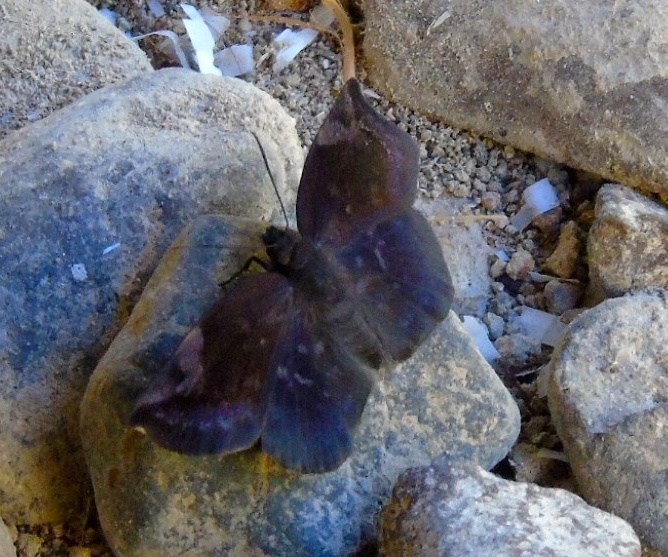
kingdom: Animalia
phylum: Arthropoda
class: Insecta
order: Lepidoptera
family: Hesperiidae
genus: Achlyodes
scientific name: Achlyodes thraso
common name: Sickle-winged skipper
